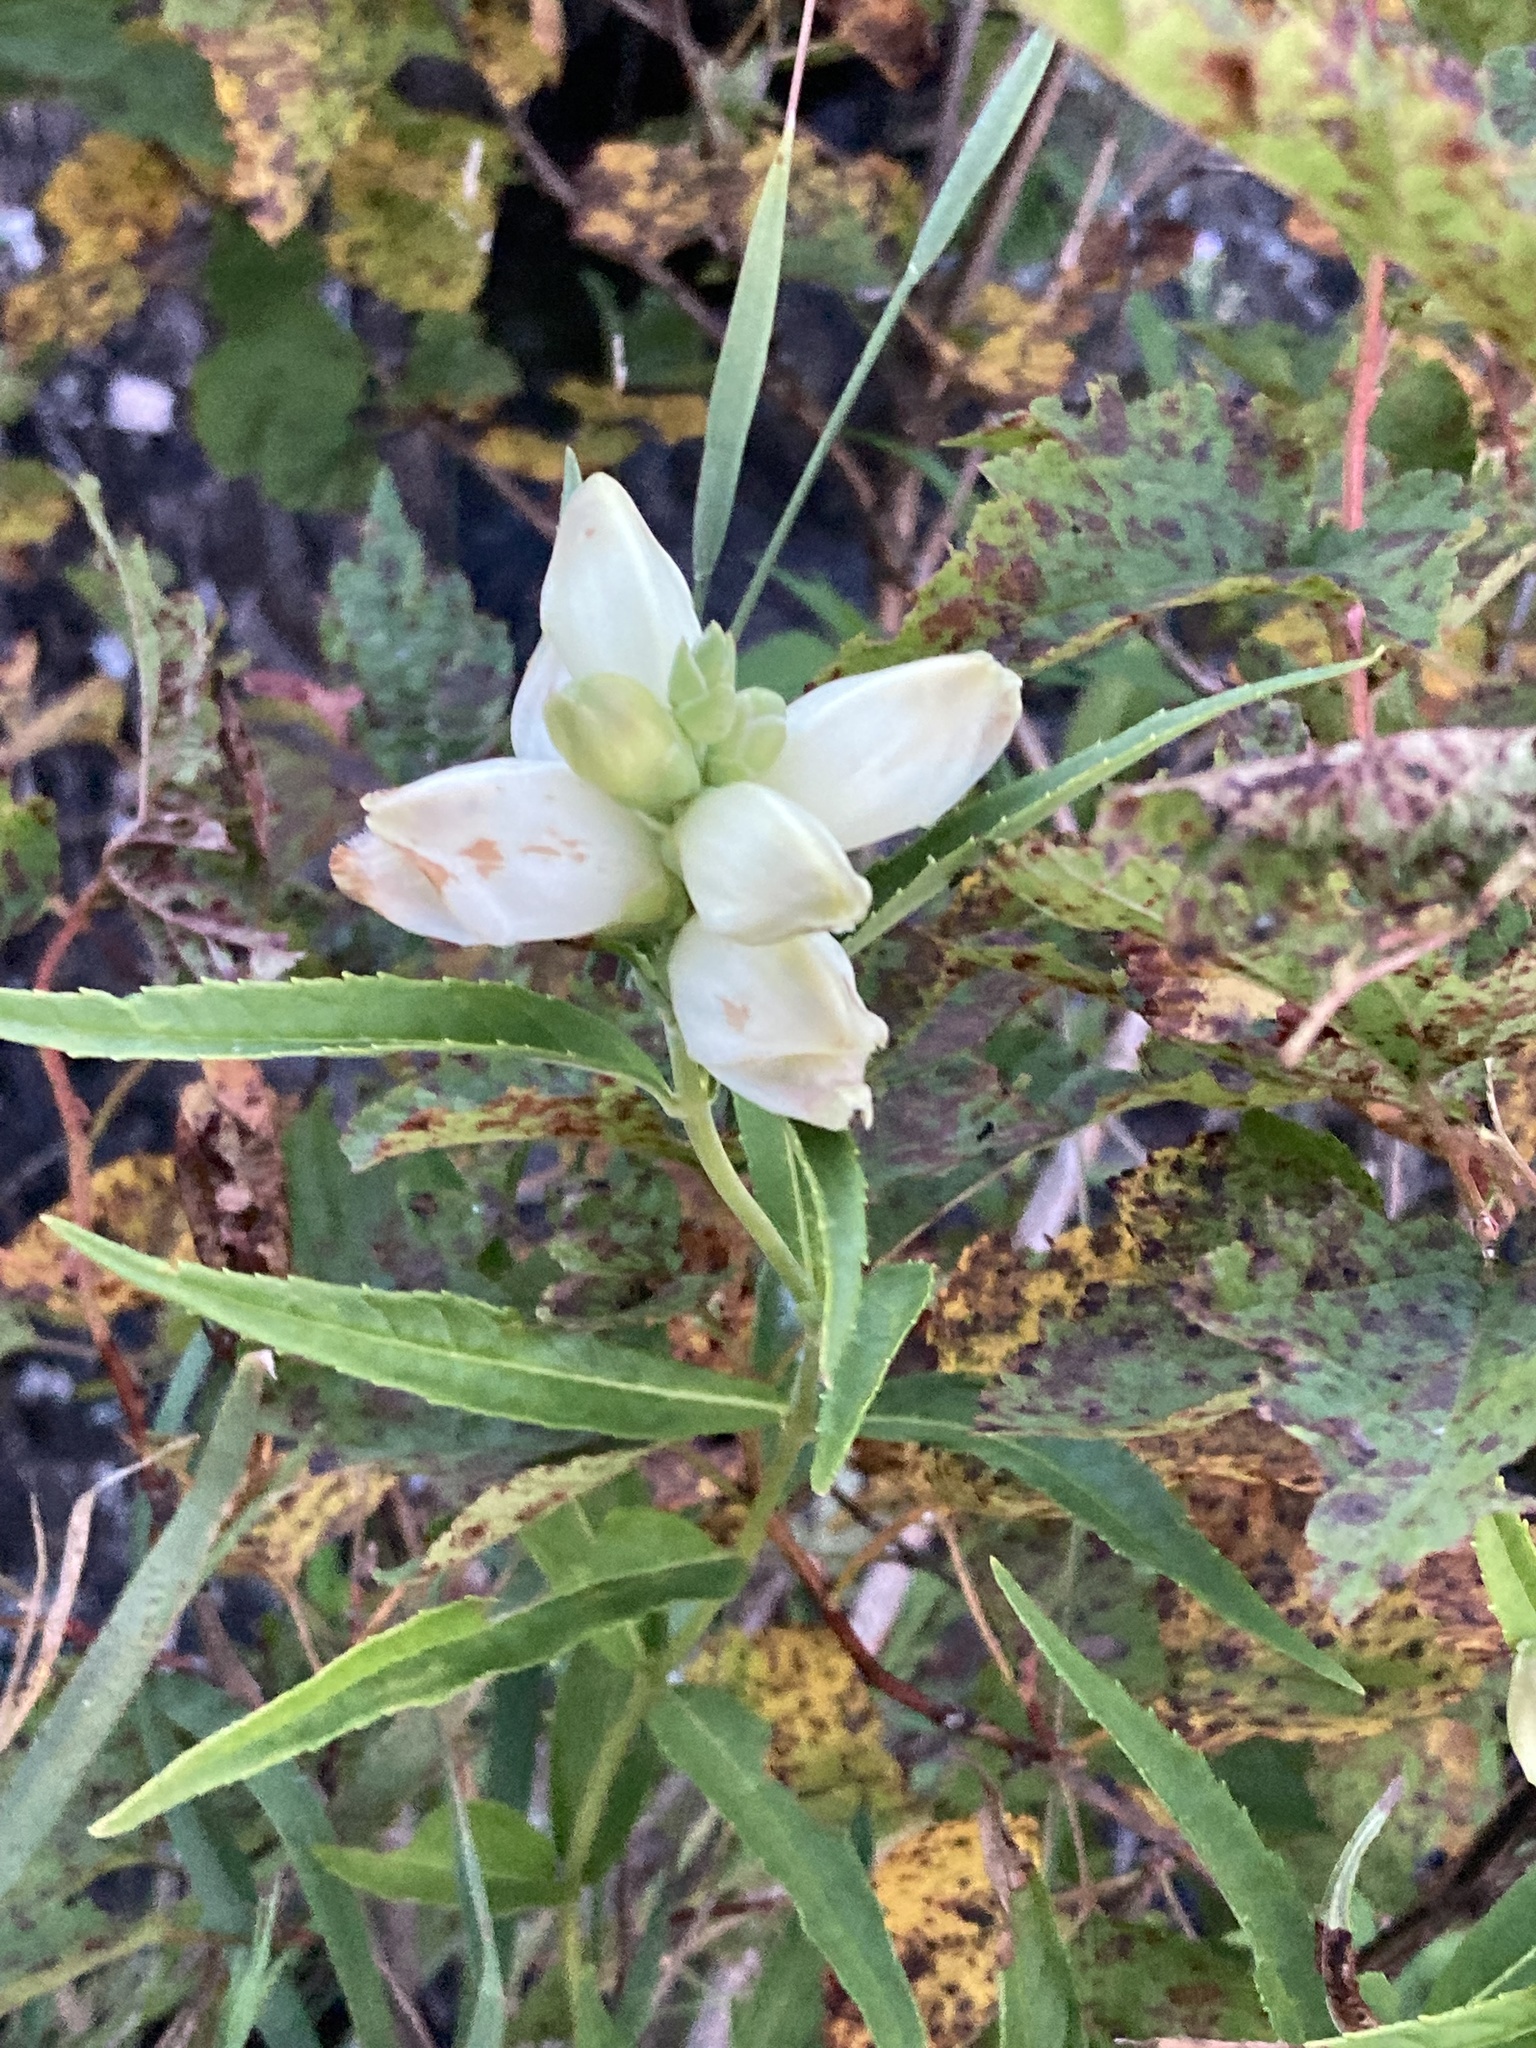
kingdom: Plantae
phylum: Tracheophyta
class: Magnoliopsida
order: Lamiales
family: Plantaginaceae
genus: Chelone
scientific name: Chelone glabra
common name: Snakehead
